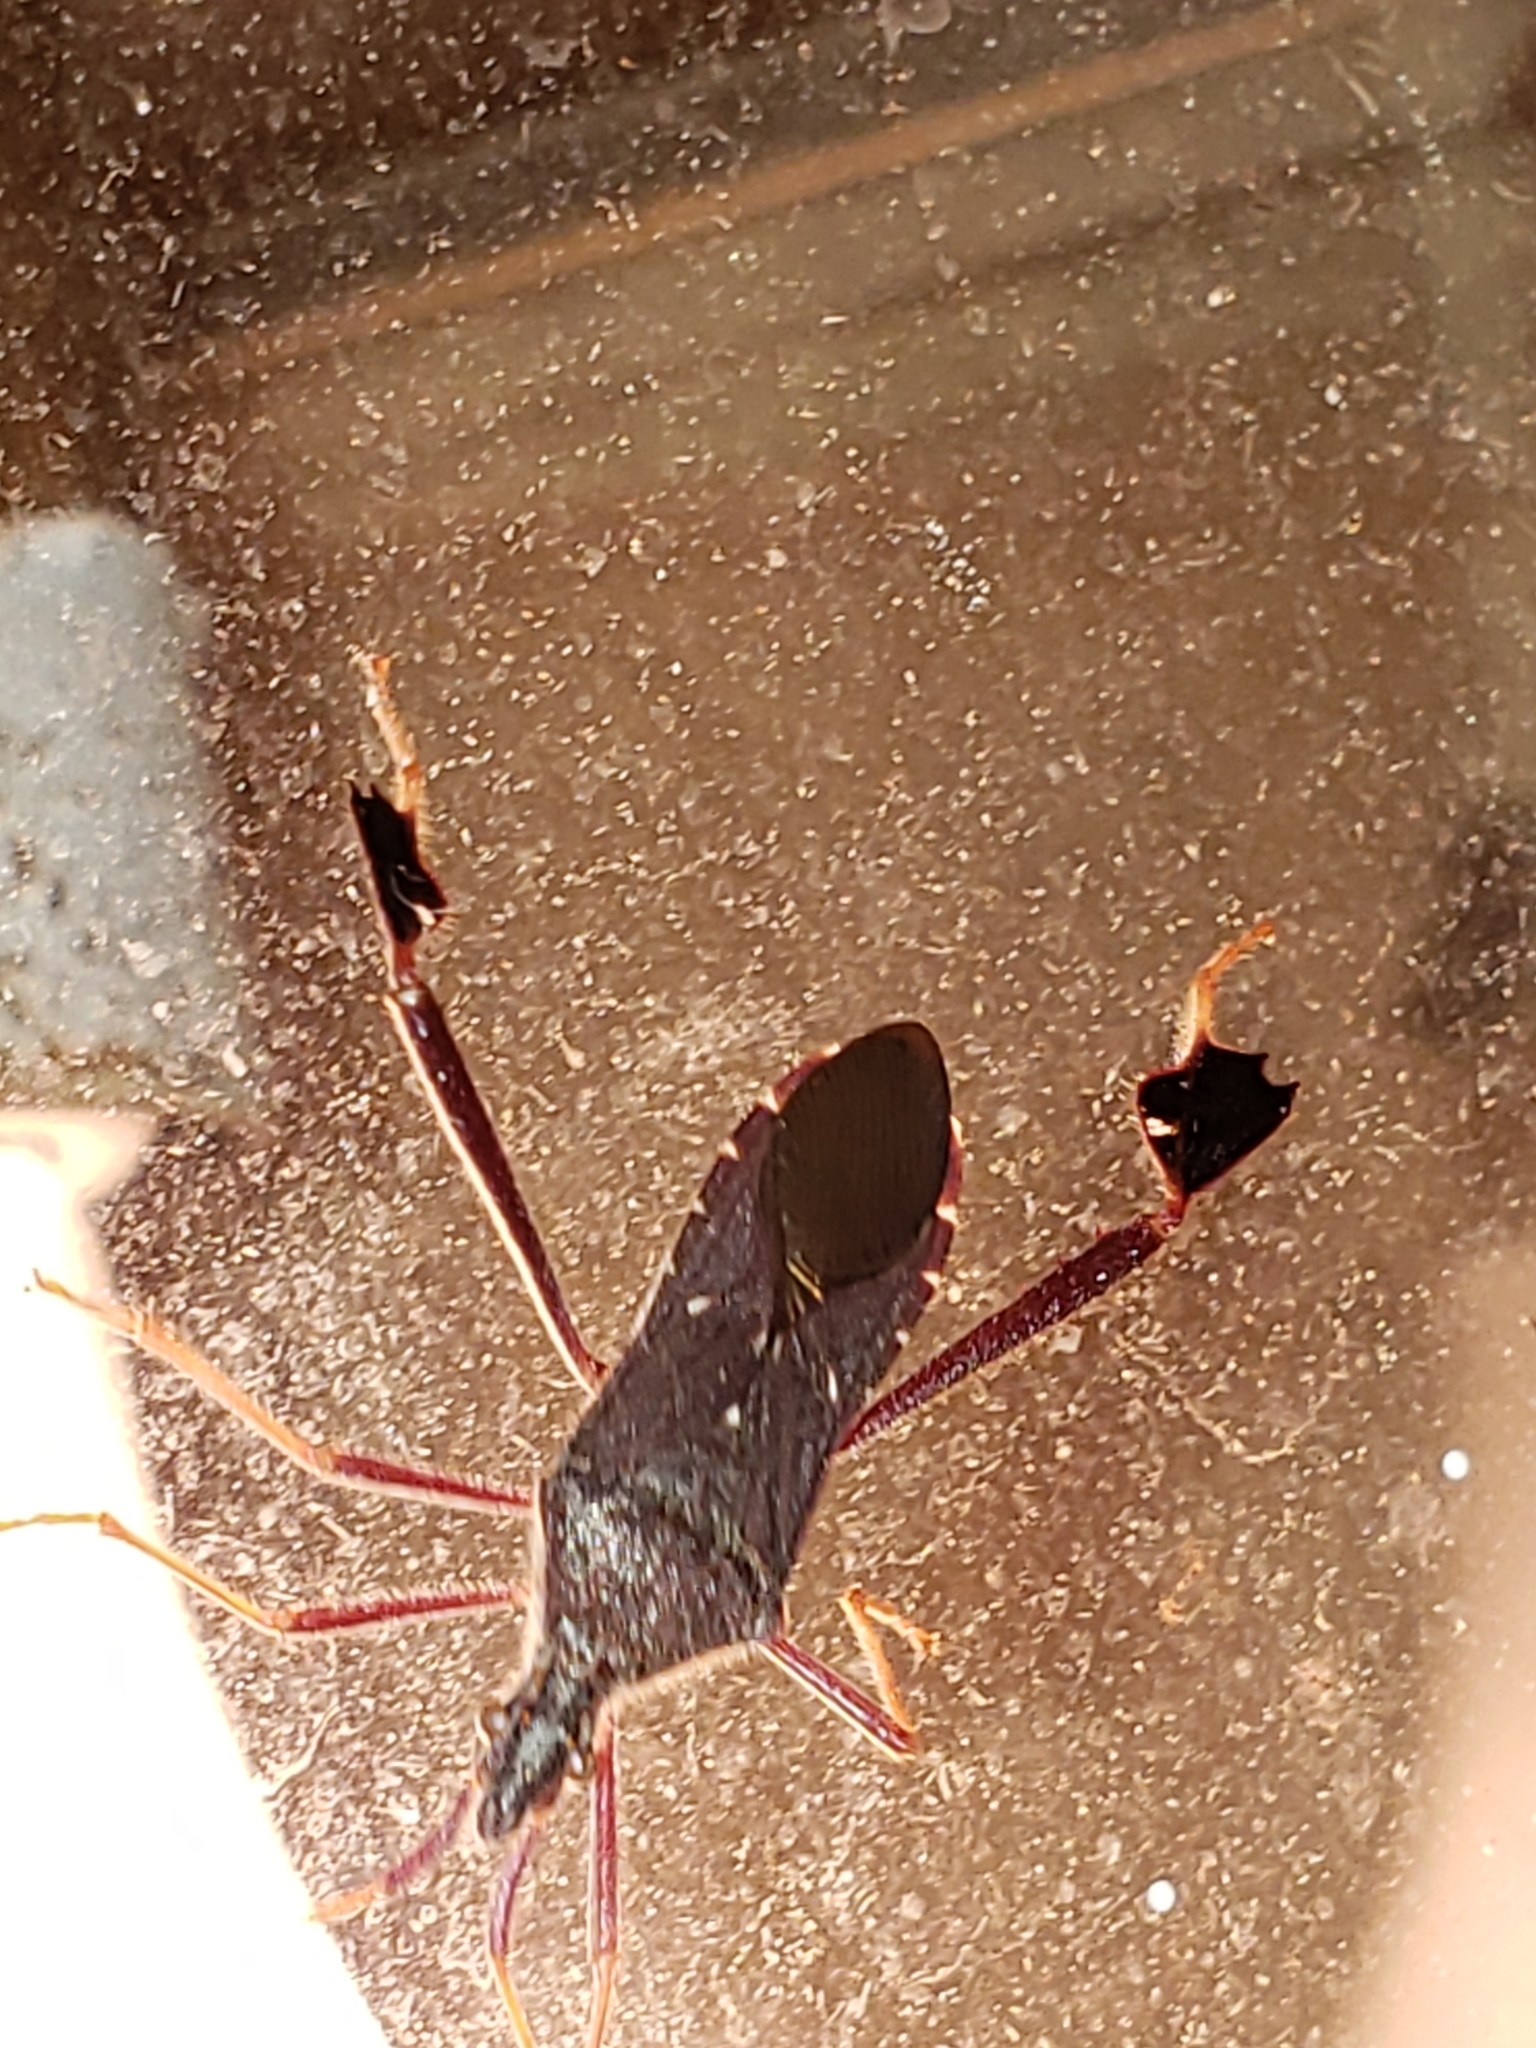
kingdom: Animalia
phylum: Arthropoda
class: Insecta
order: Hemiptera
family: Coreidae
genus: Leptoglossus
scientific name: Leptoglossus oppositus
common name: Northern leaf-footed bug
